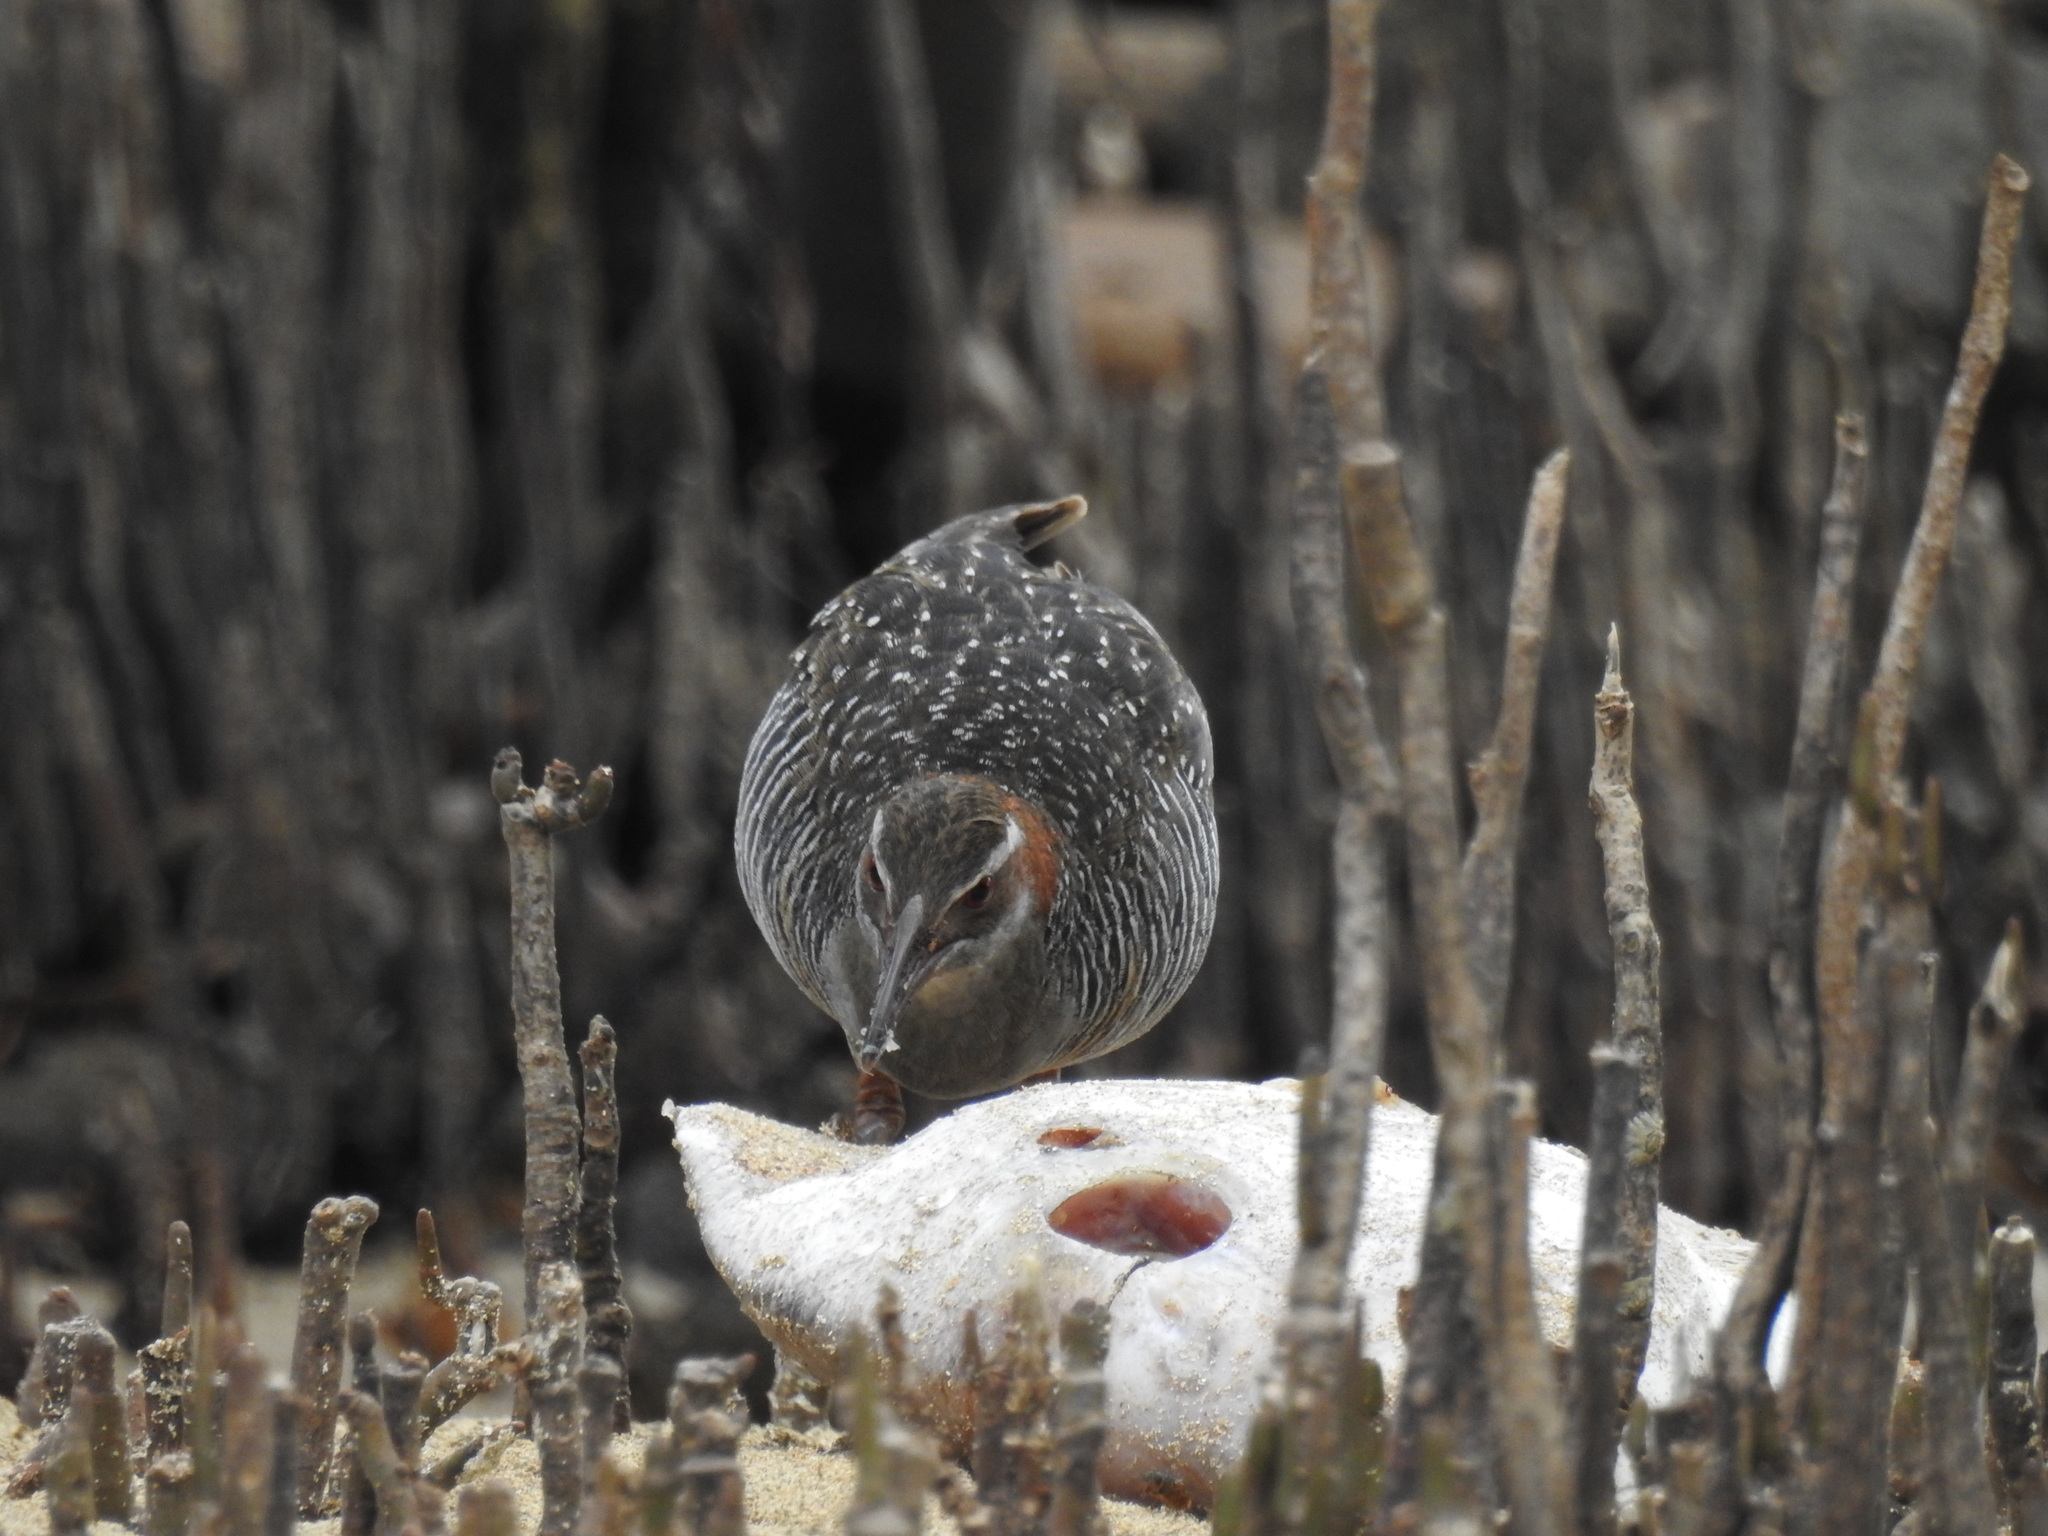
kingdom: Animalia
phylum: Chordata
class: Aves
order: Gruiformes
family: Rallidae
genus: Gallirallus
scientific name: Gallirallus philippensis
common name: Buff-banded rail
